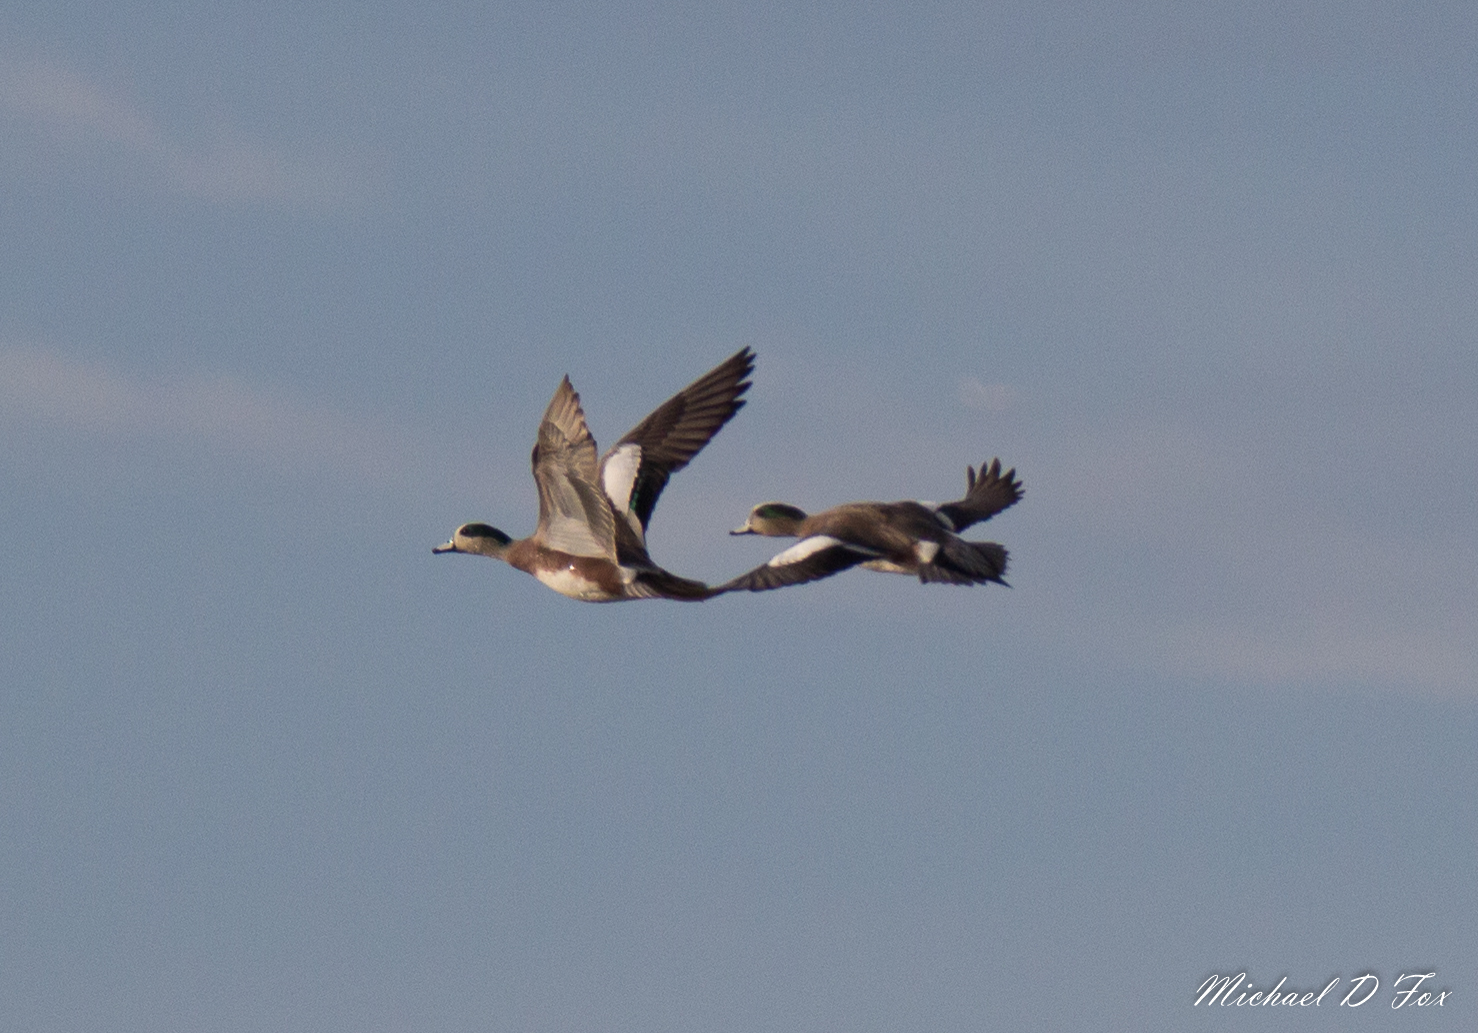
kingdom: Animalia
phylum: Chordata
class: Aves
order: Anseriformes
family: Anatidae
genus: Mareca
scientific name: Mareca americana
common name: American wigeon
